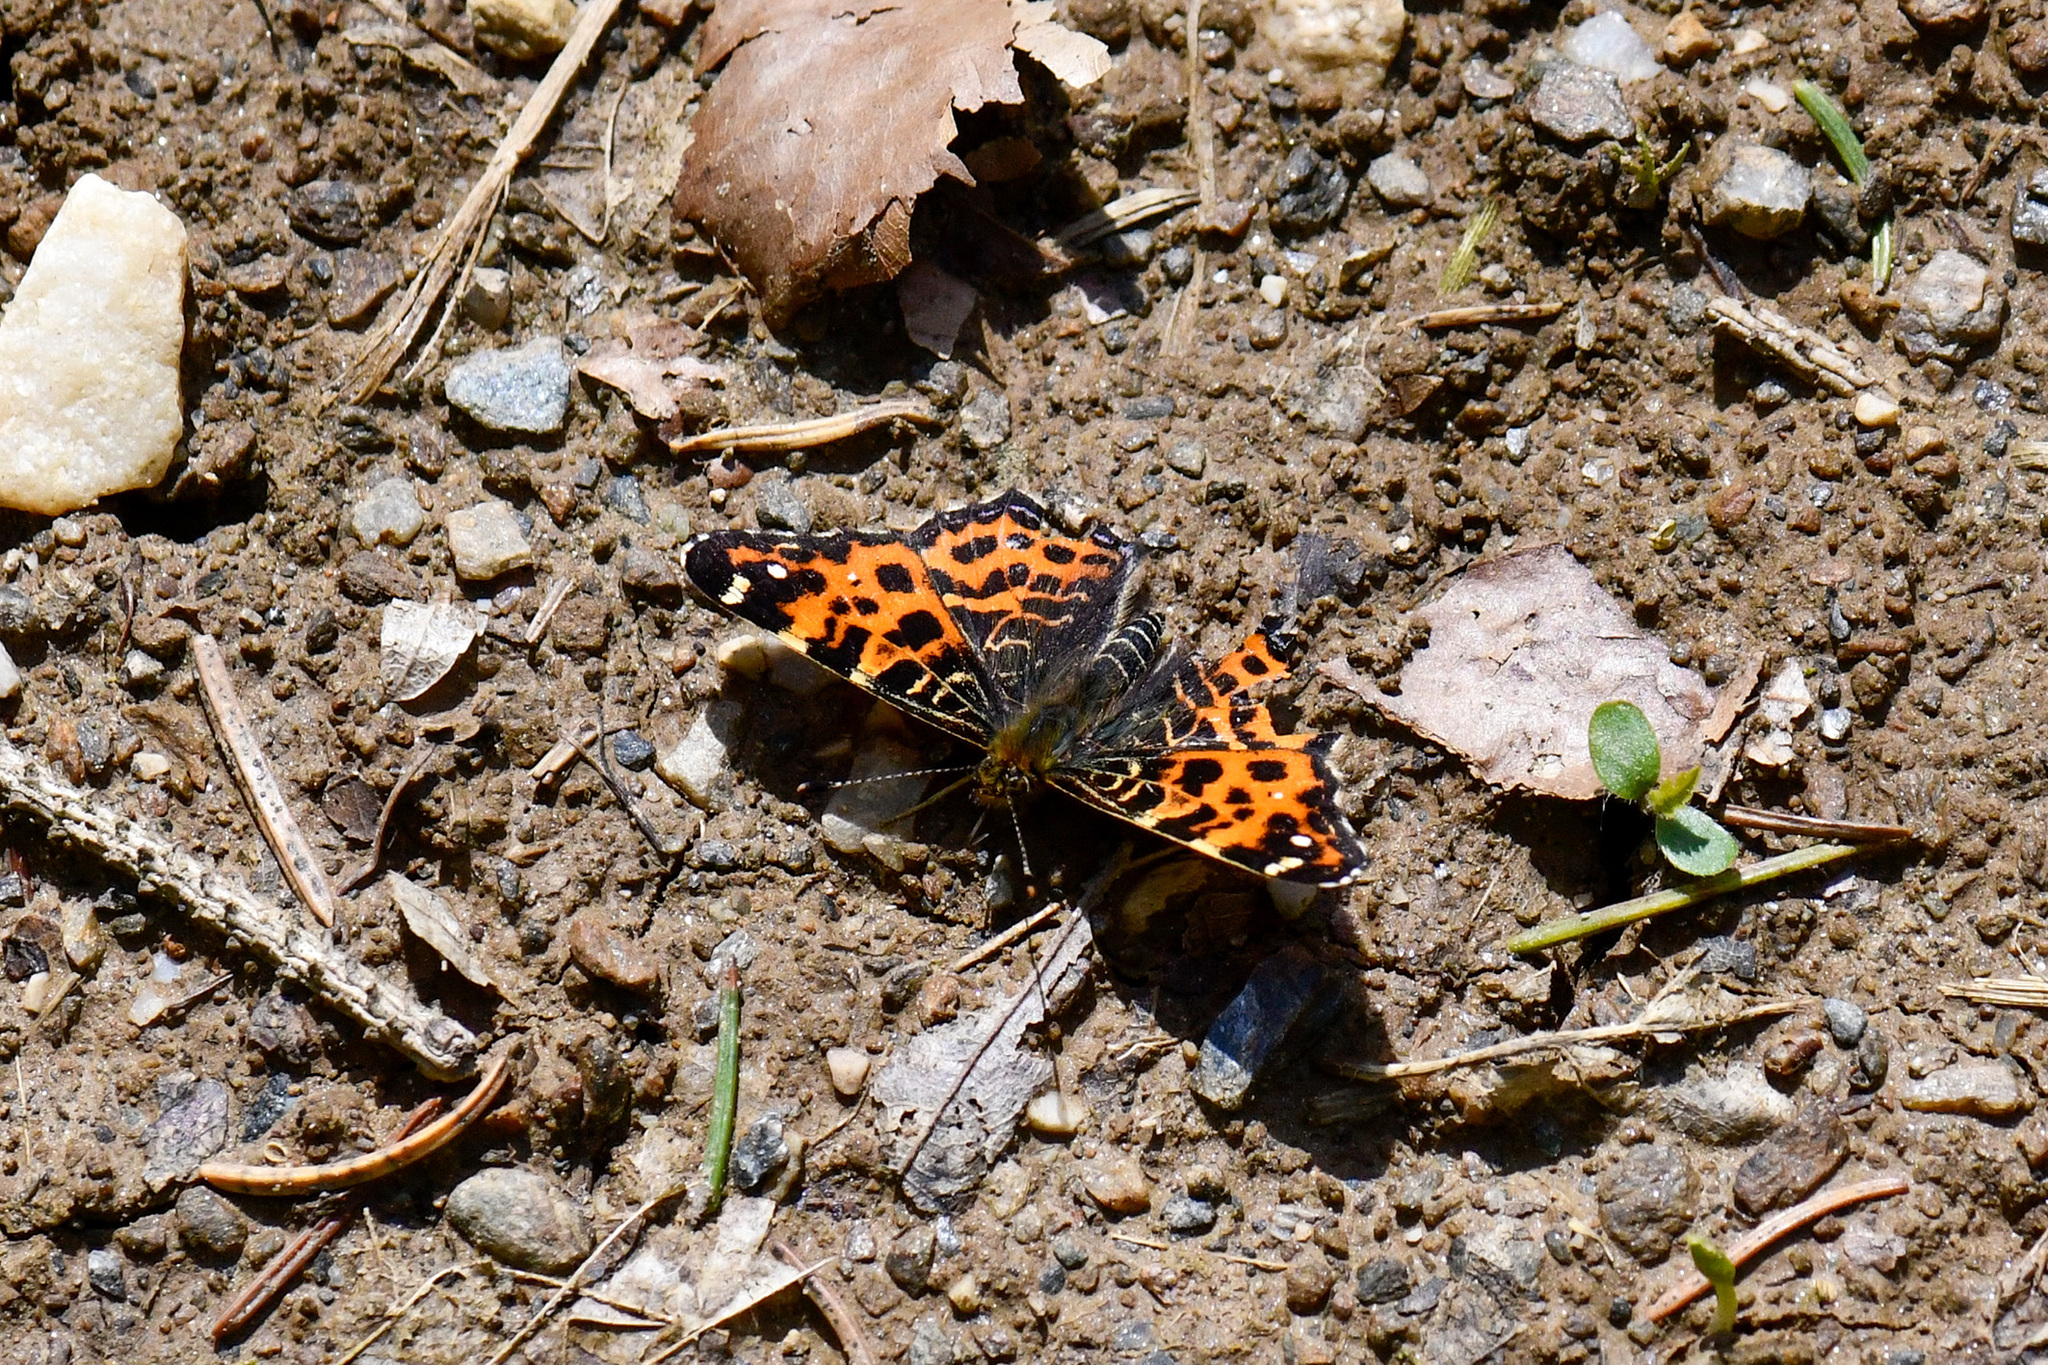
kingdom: Animalia
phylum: Arthropoda
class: Insecta
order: Lepidoptera
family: Nymphalidae
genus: Araschnia
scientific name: Araschnia levana
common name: Map butterfly
